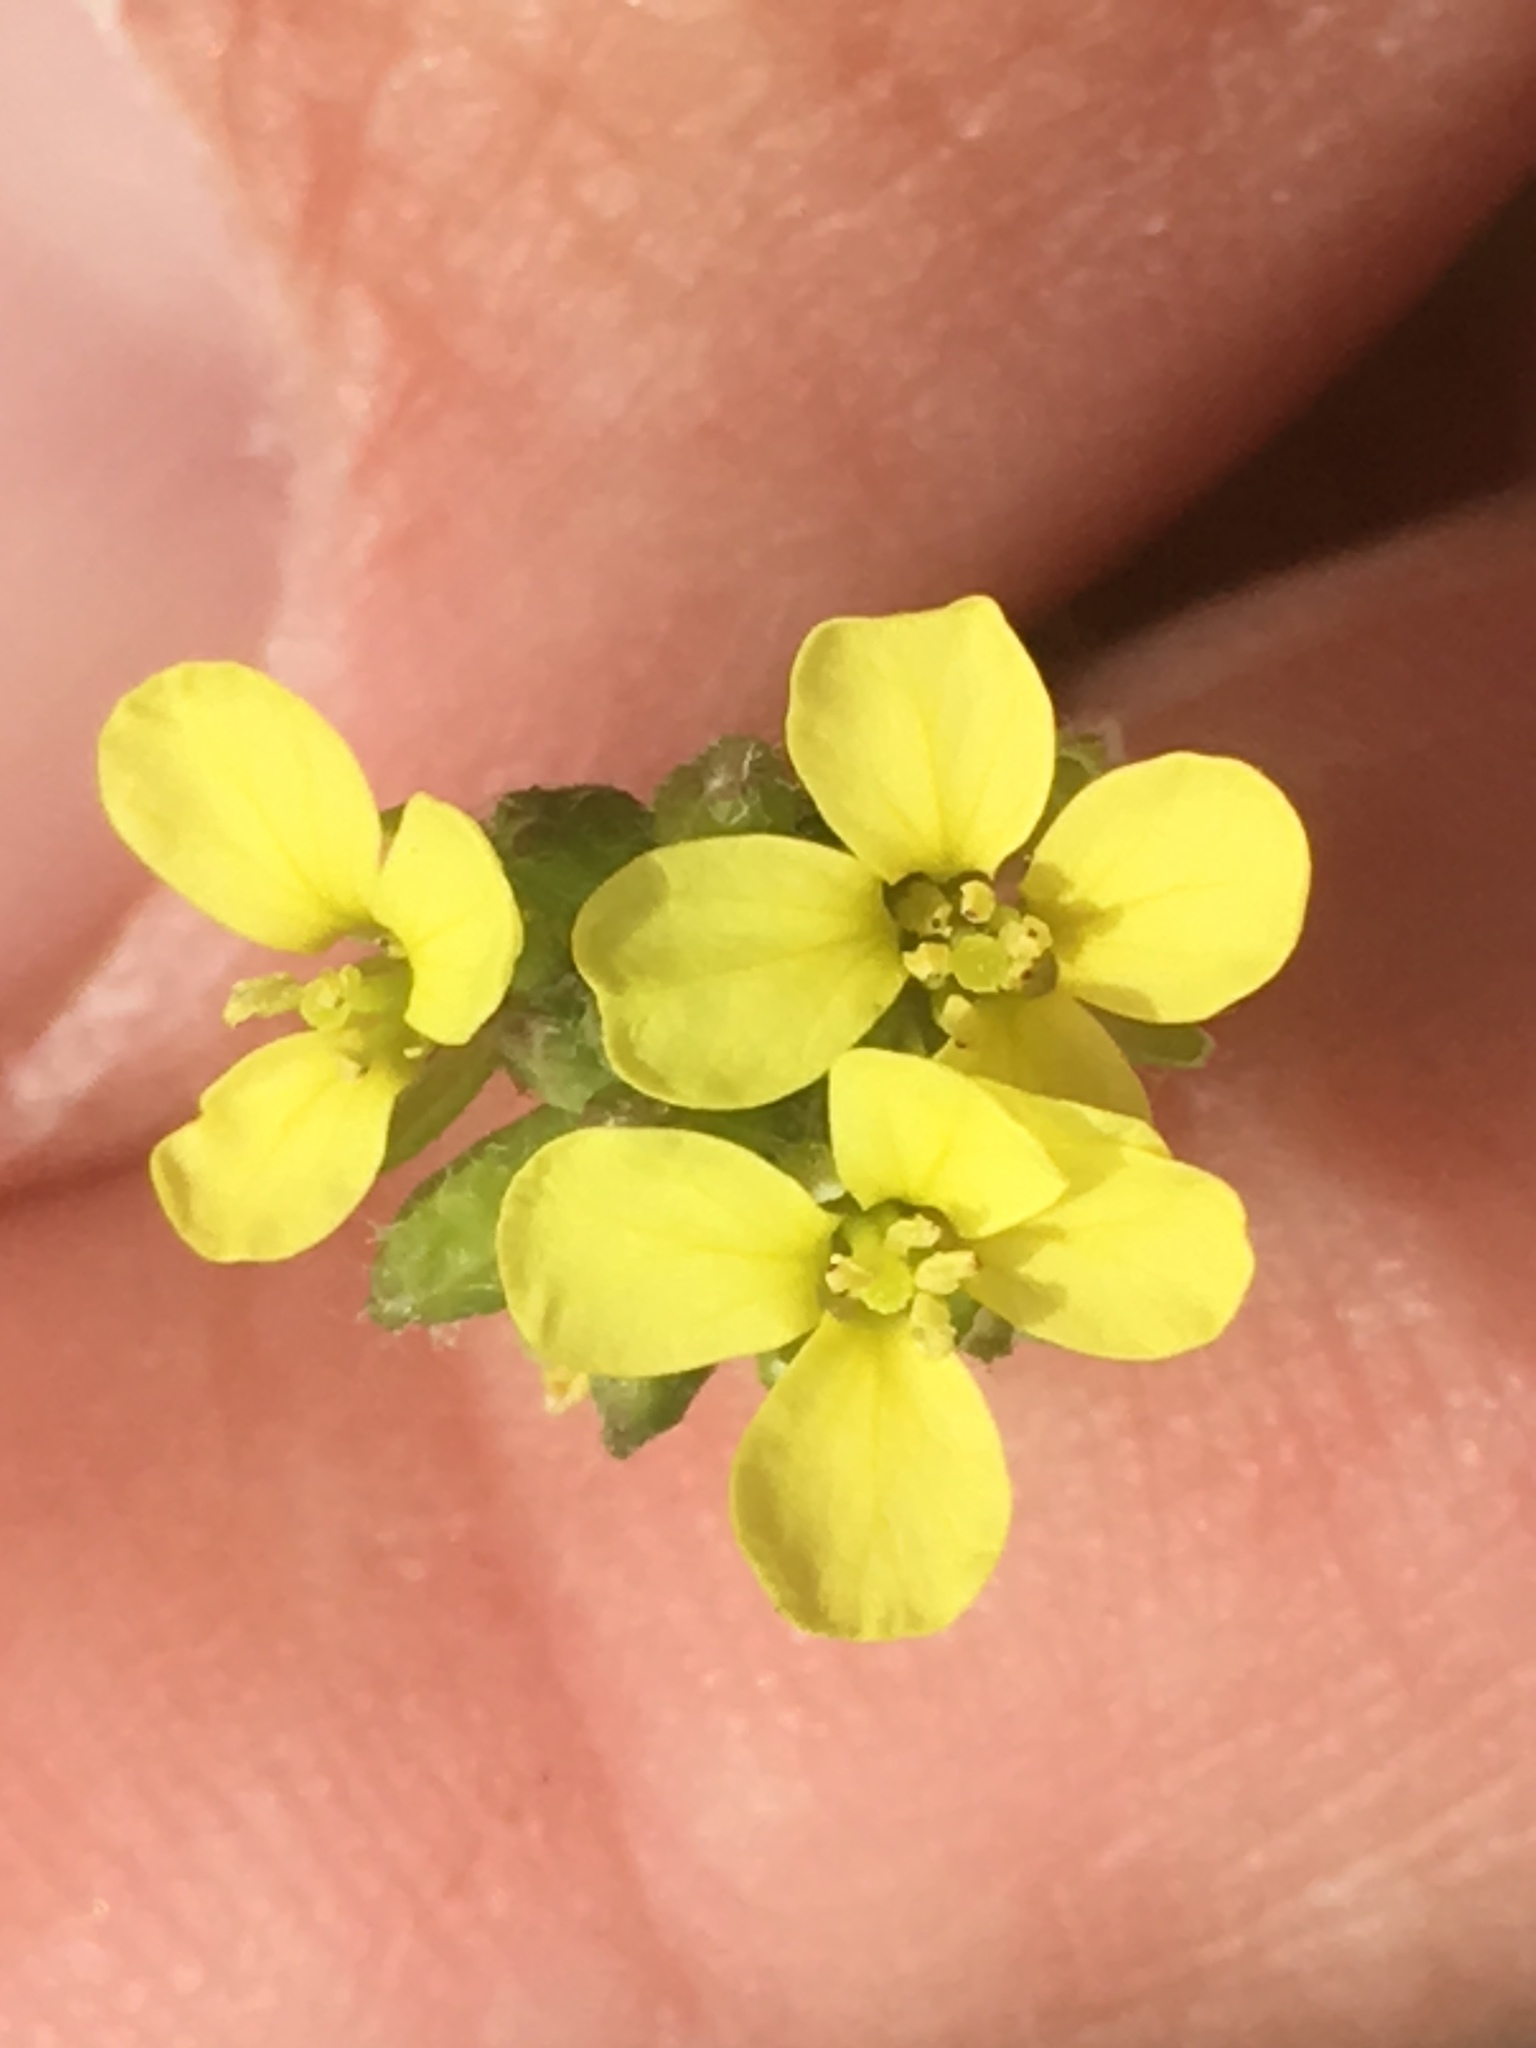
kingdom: Plantae
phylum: Tracheophyta
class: Magnoliopsida
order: Brassicales
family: Brassicaceae
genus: Hirschfeldia
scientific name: Hirschfeldia incana
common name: Hoary mustard
